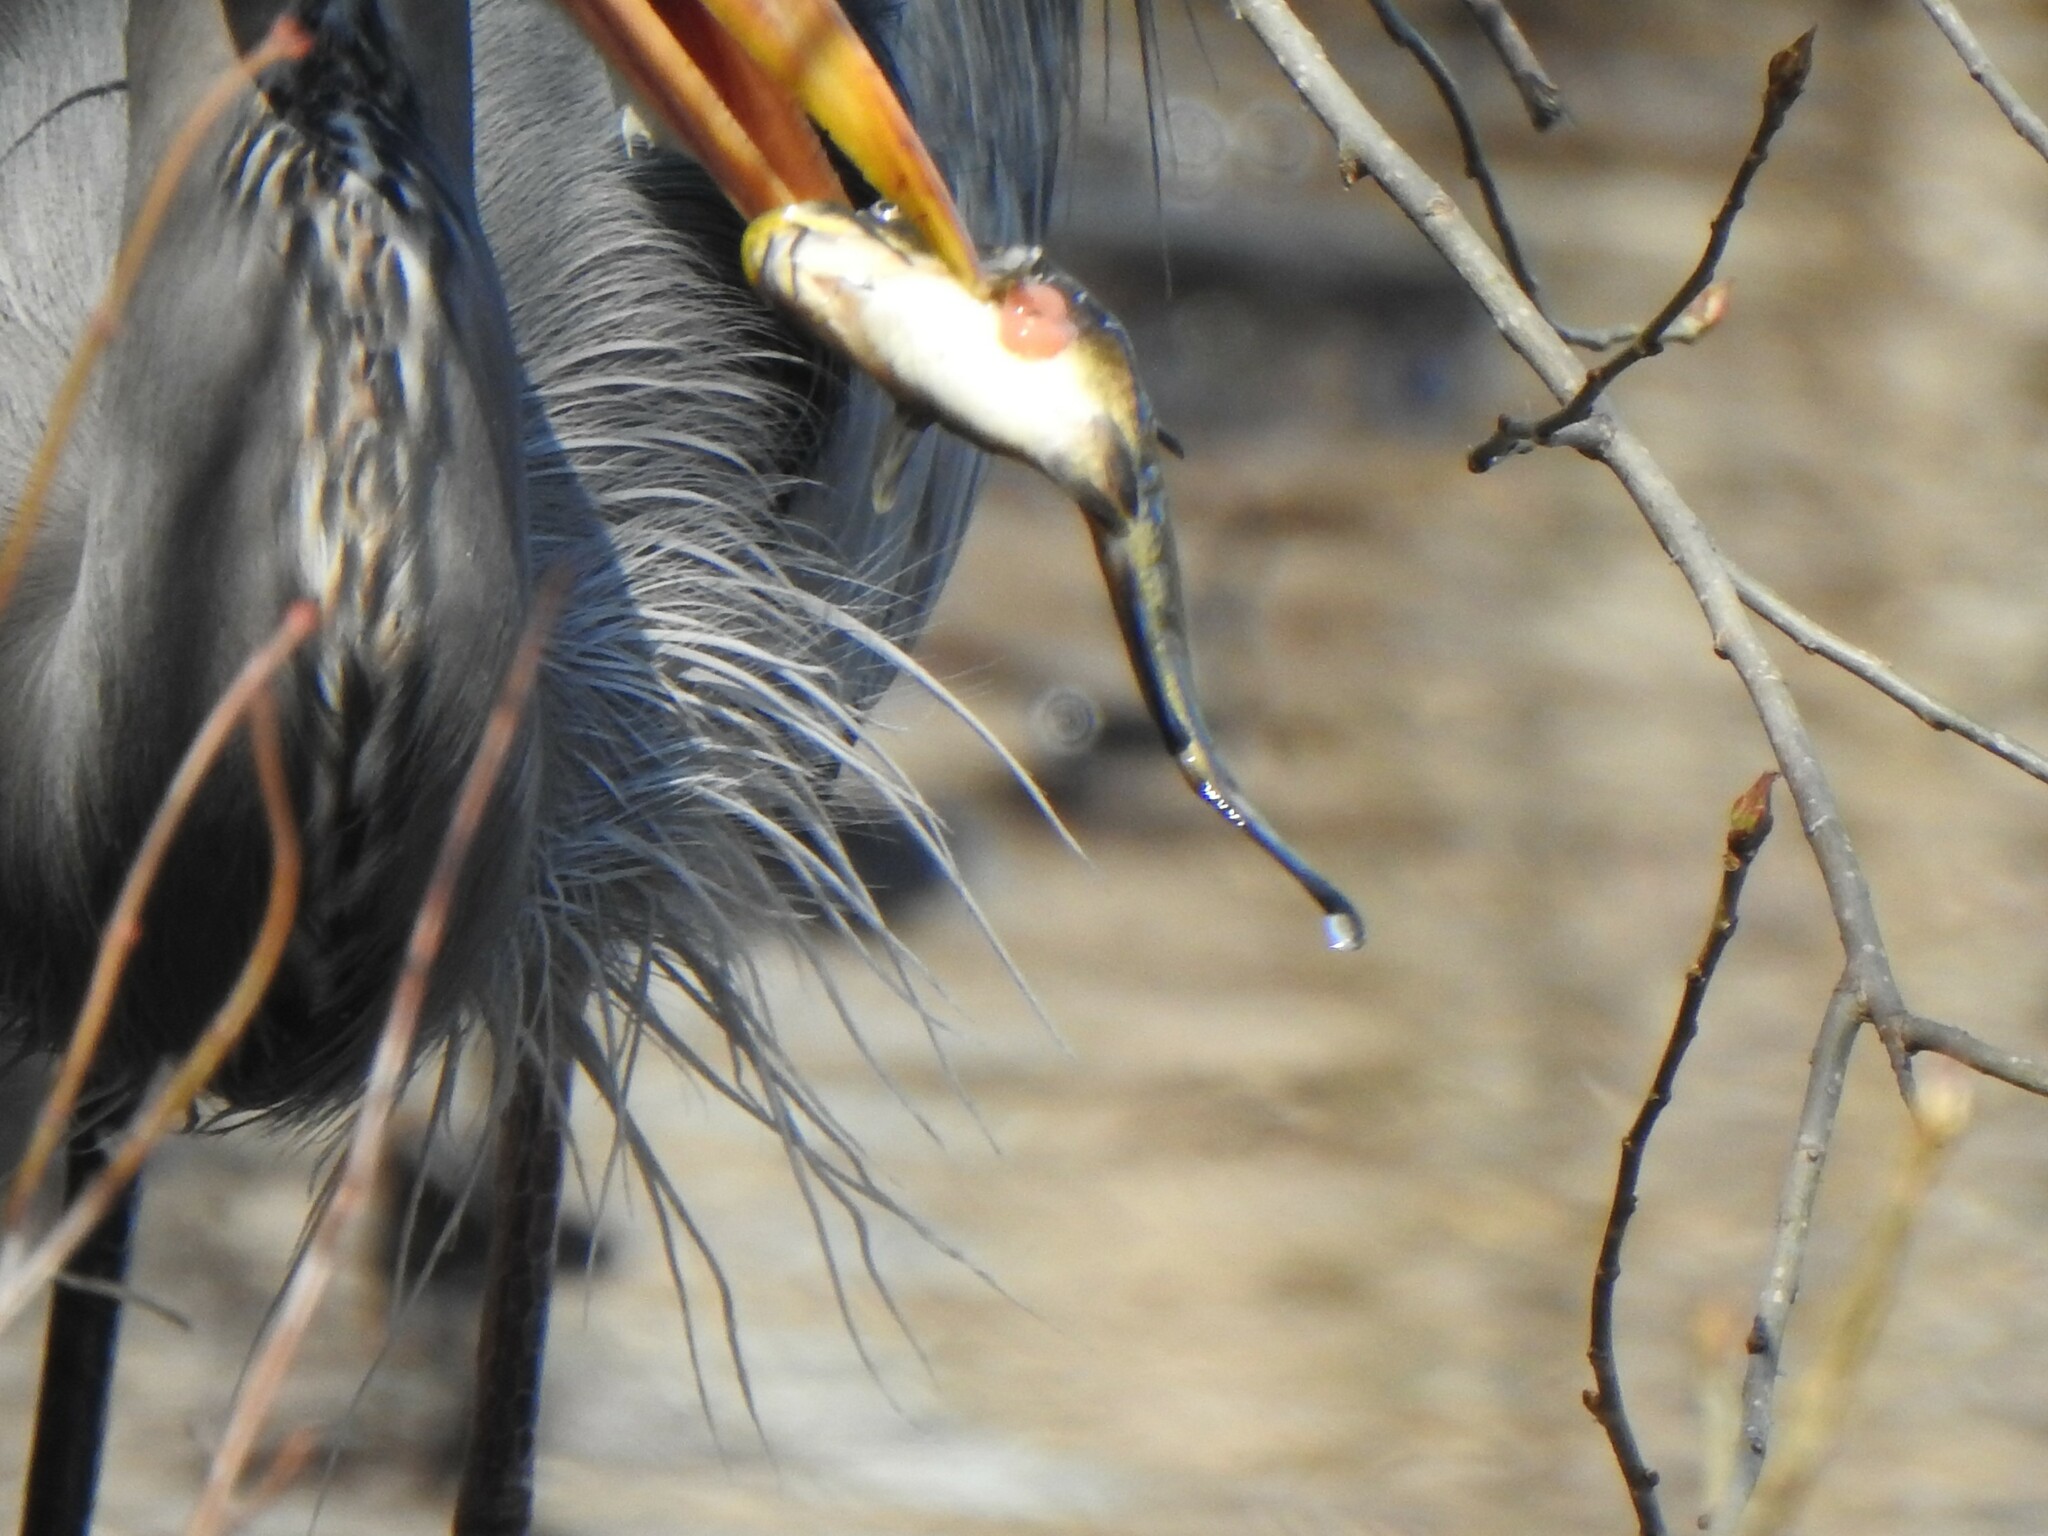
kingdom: Animalia
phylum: Chordata
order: Siluriformes
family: Ictaluridae
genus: Ameiurus
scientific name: Ameiurus
